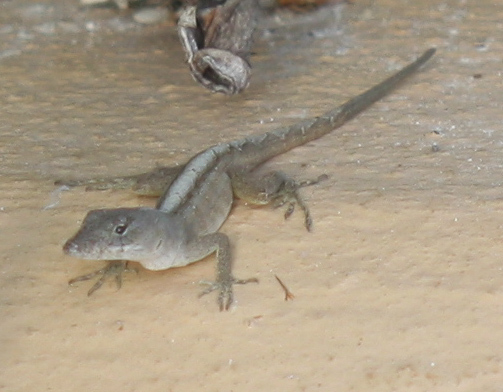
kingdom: Animalia
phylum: Chordata
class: Squamata
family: Dactyloidae
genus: Anolis
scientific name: Anolis sagrei
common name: Brown anole
